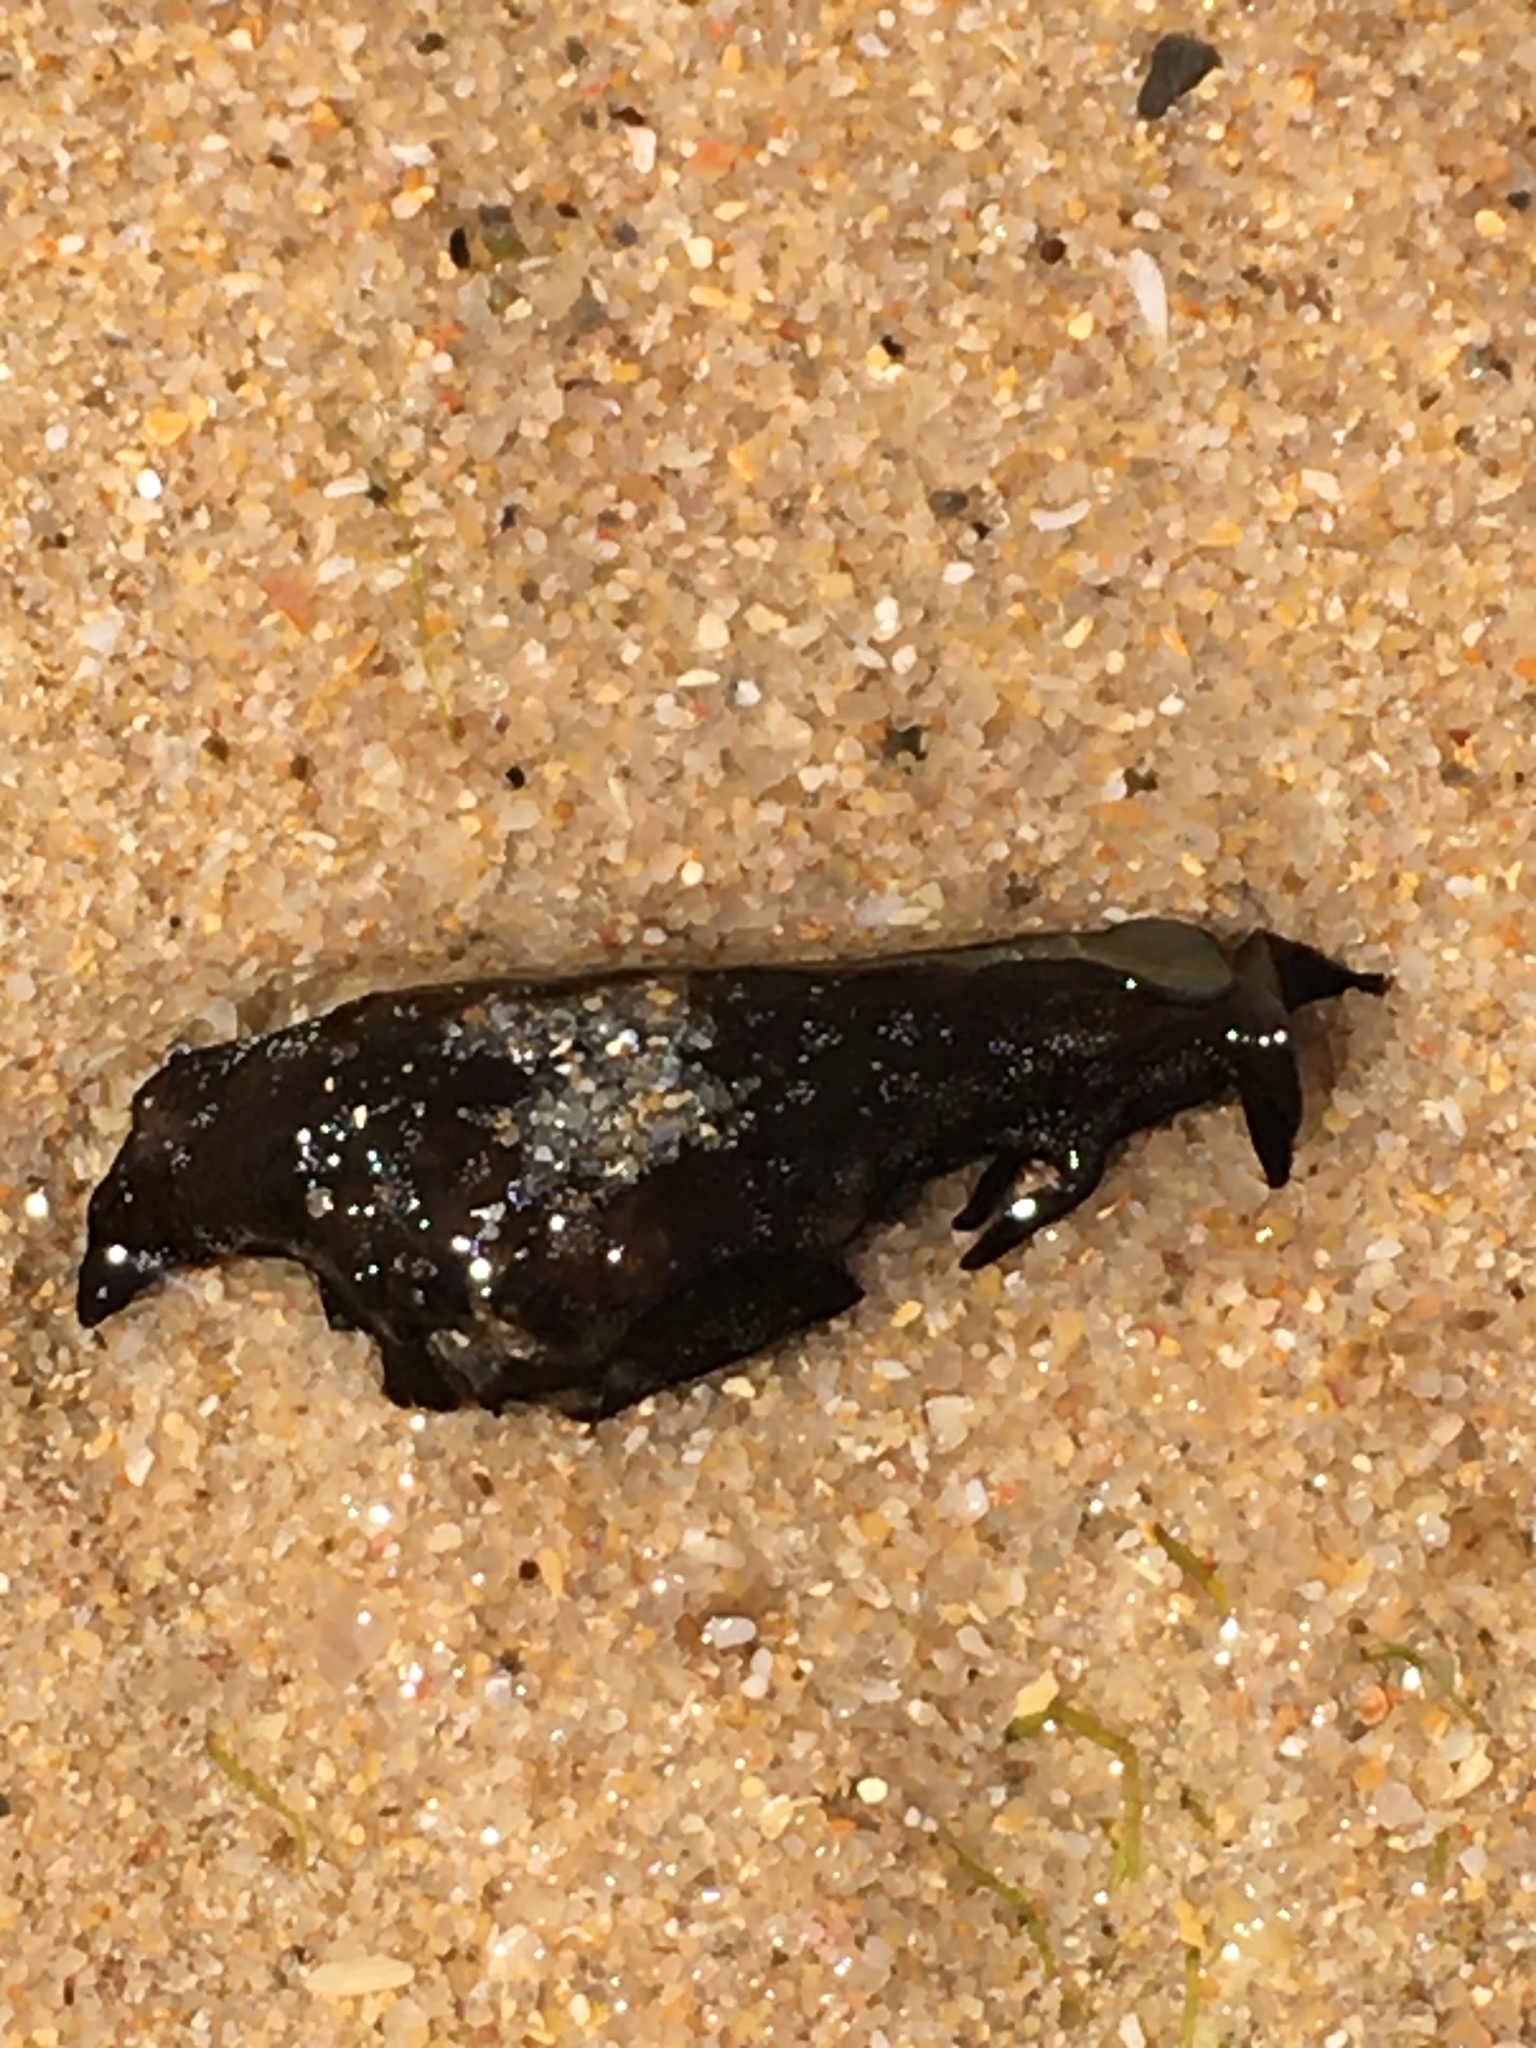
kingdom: Animalia
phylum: Mollusca
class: Gastropoda
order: Aplysiida
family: Aplysiidae
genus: Aplysia
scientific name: Aplysia punctata
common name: Common sea hare
